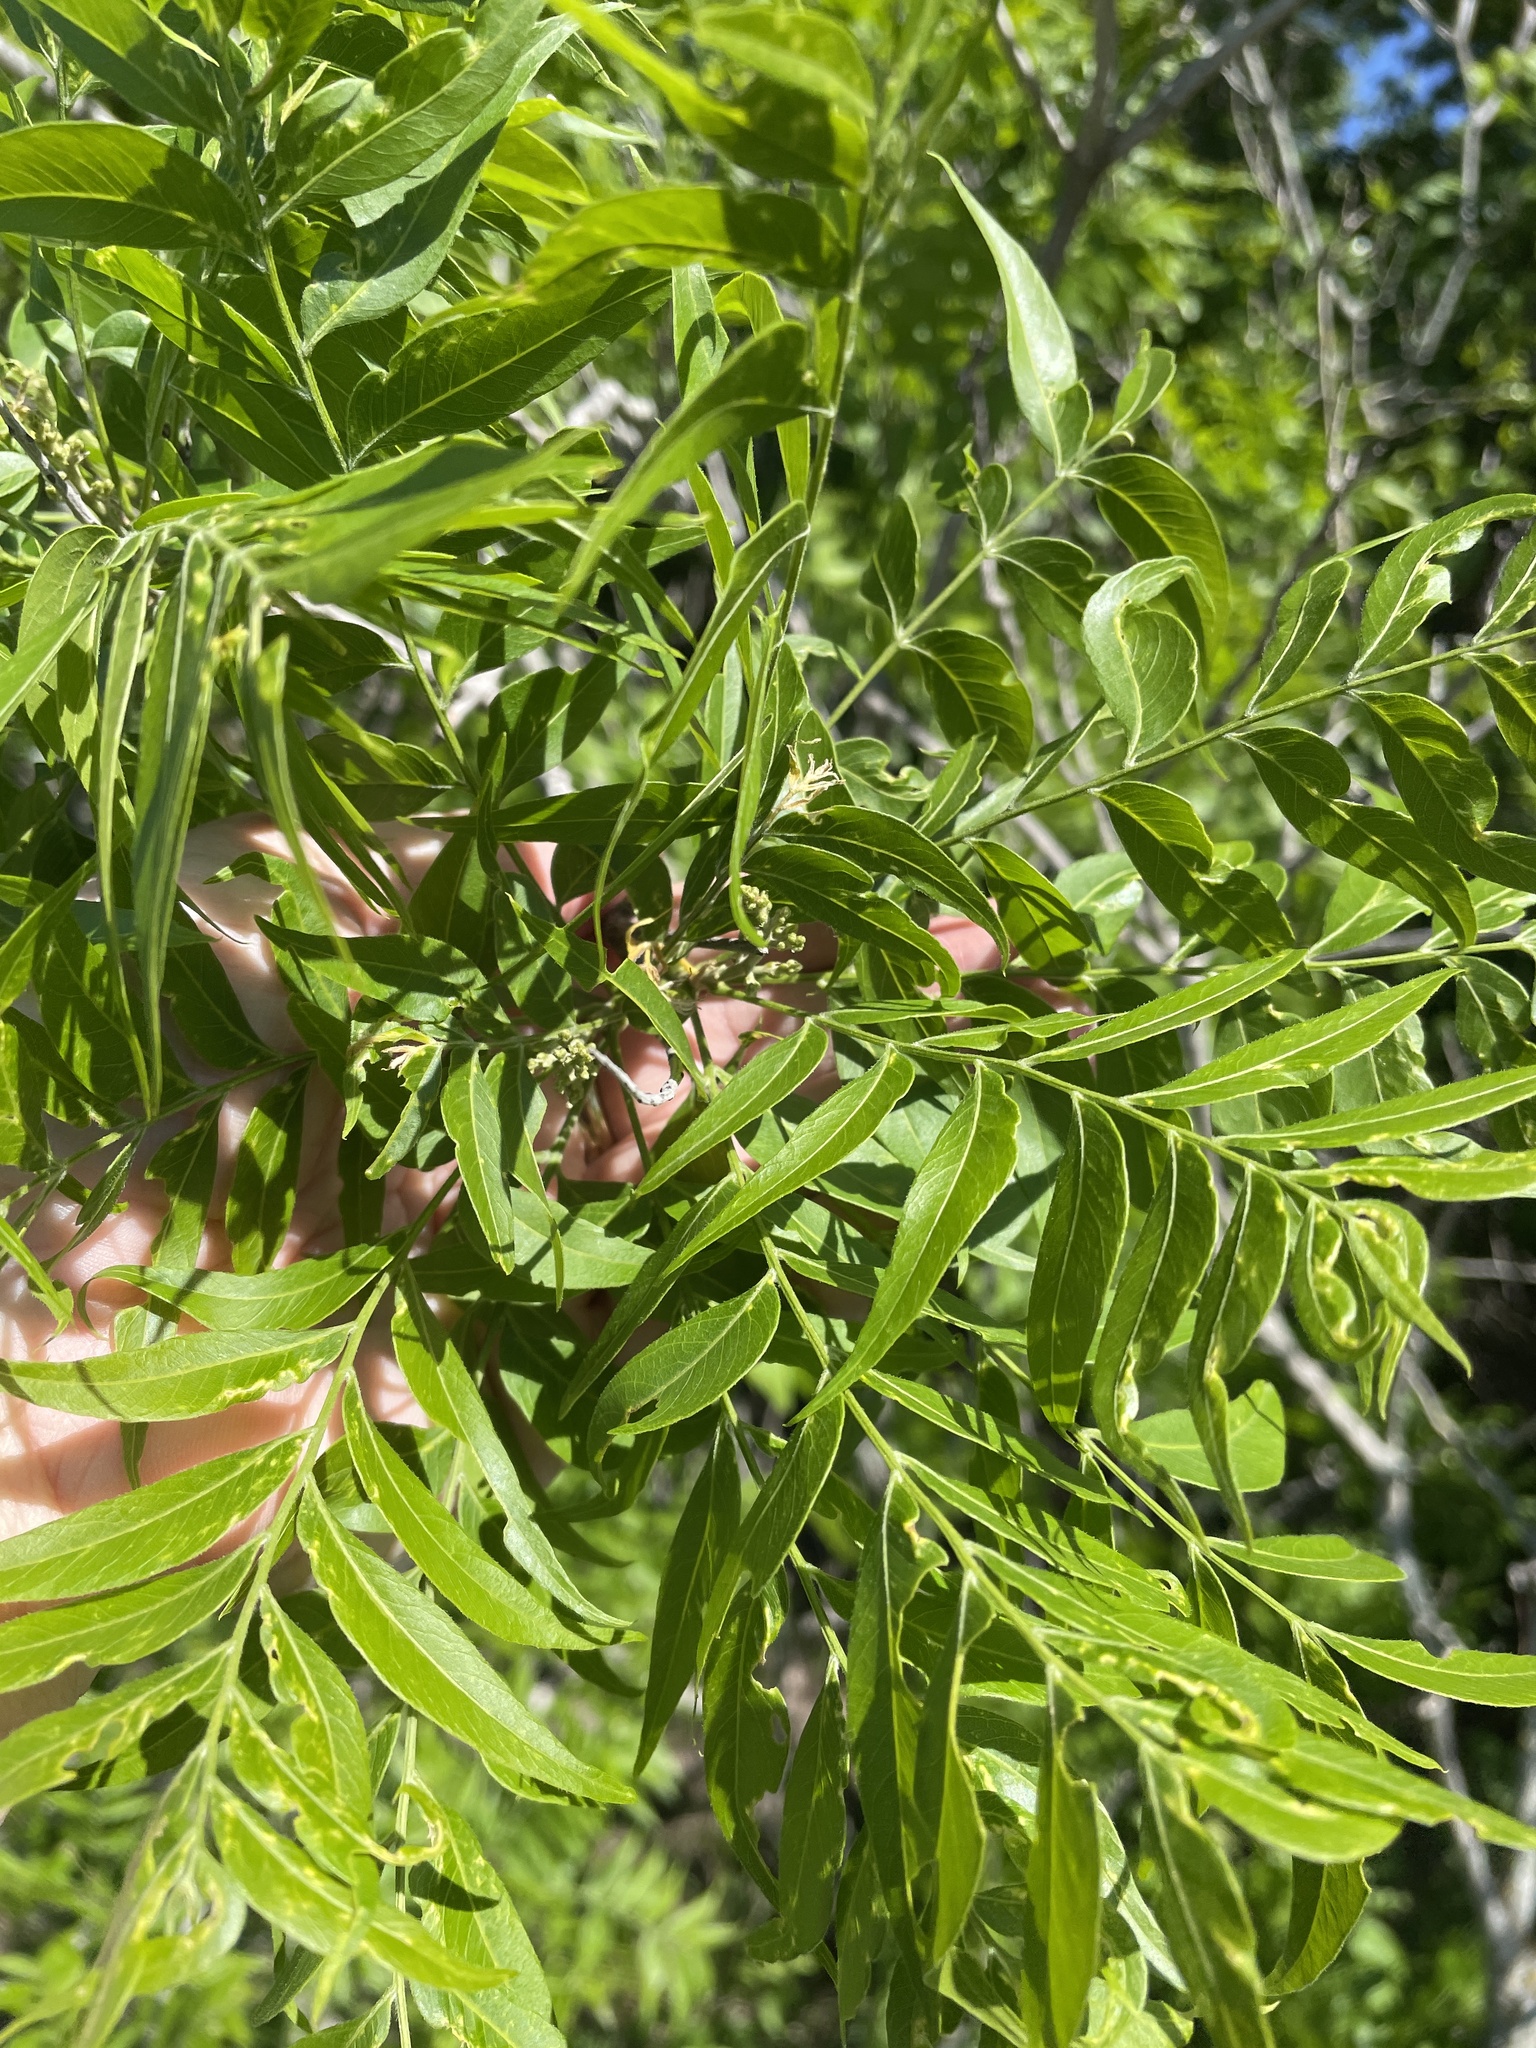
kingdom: Plantae
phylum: Tracheophyta
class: Magnoliopsida
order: Sapindales
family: Sapindaceae
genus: Sapindus
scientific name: Sapindus drummondii
